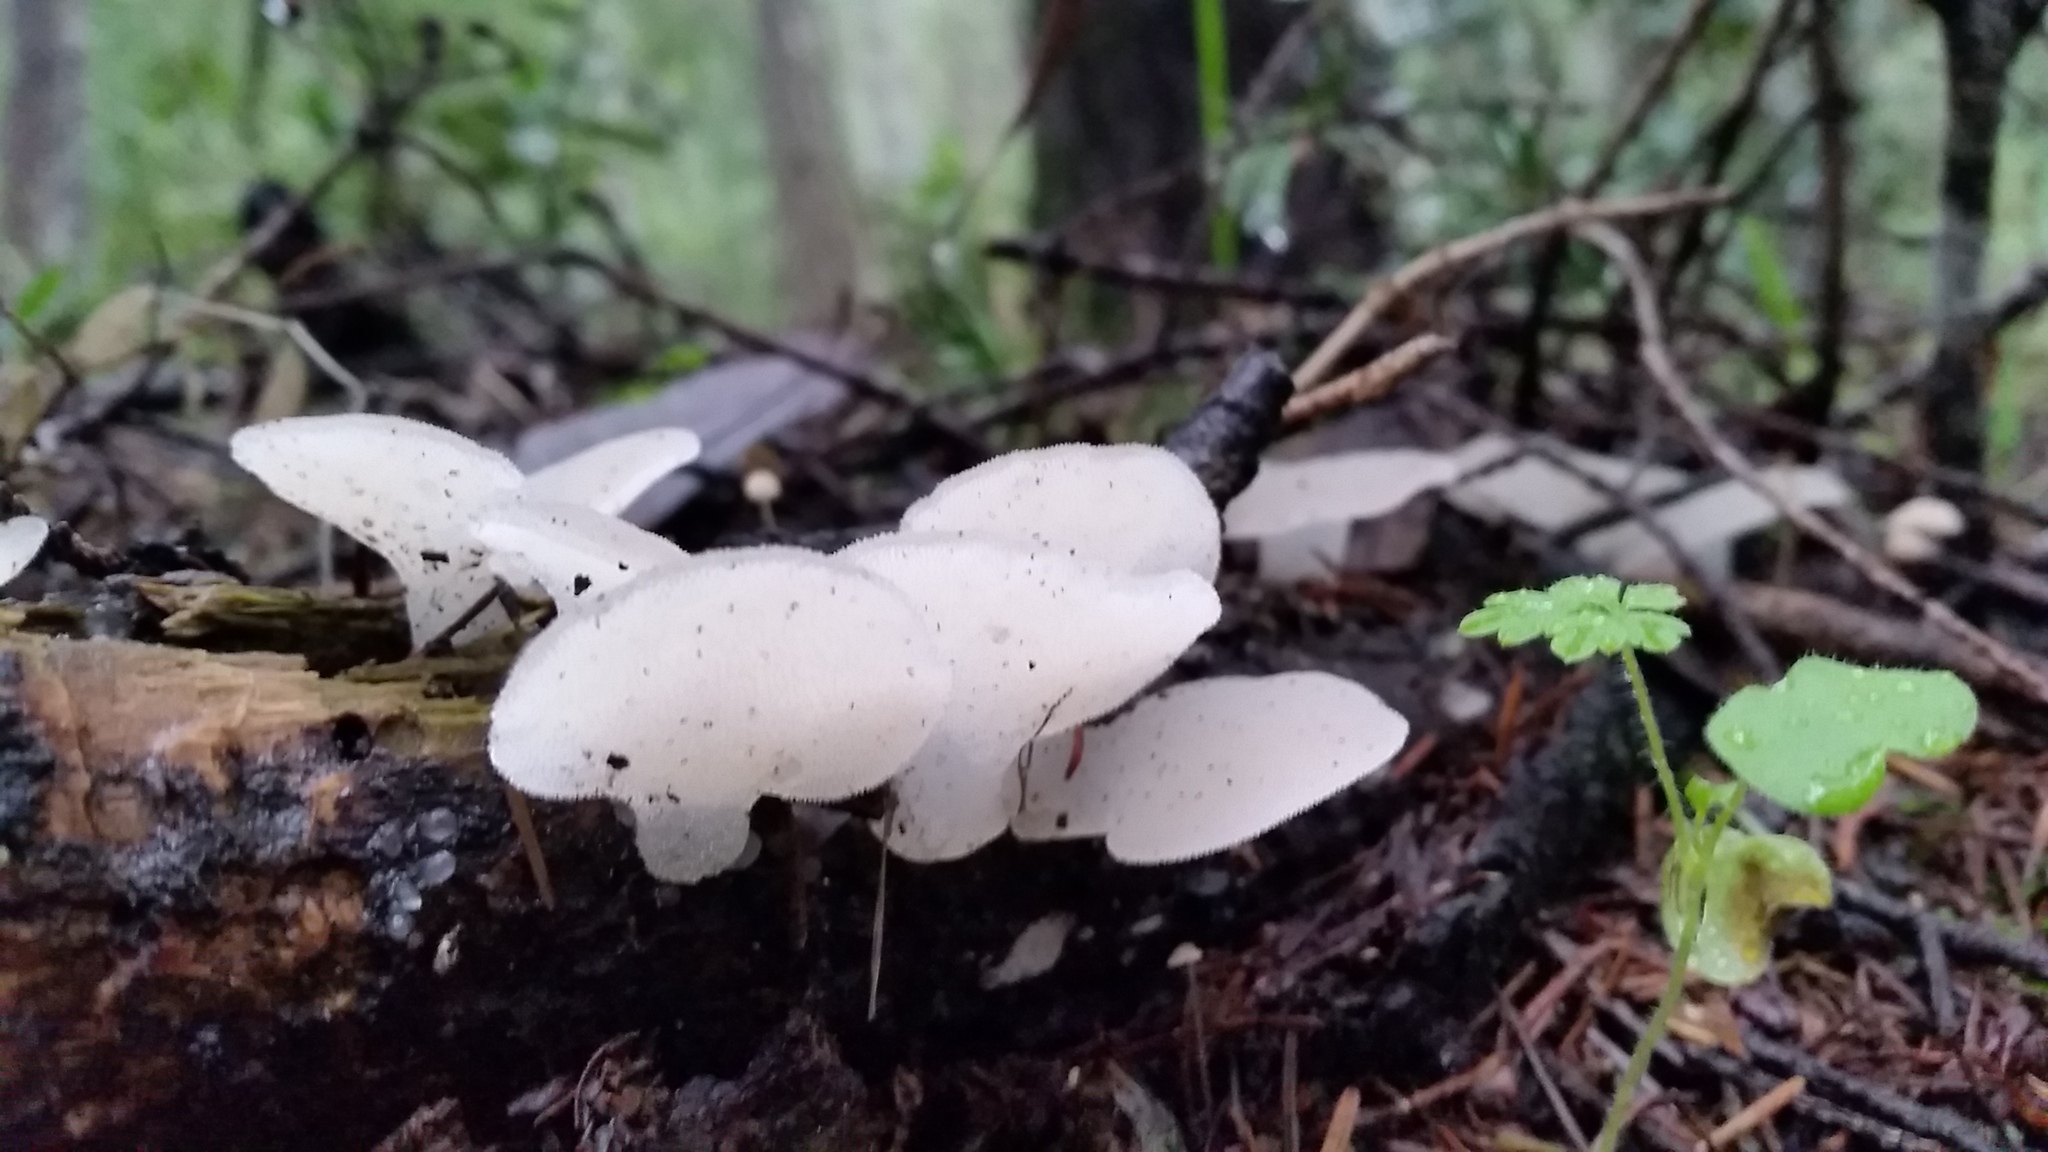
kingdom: Fungi
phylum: Basidiomycota
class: Agaricomycetes
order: Auriculariales
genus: Pseudohydnum
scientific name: Pseudohydnum gelatinosum
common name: Jelly tongue
